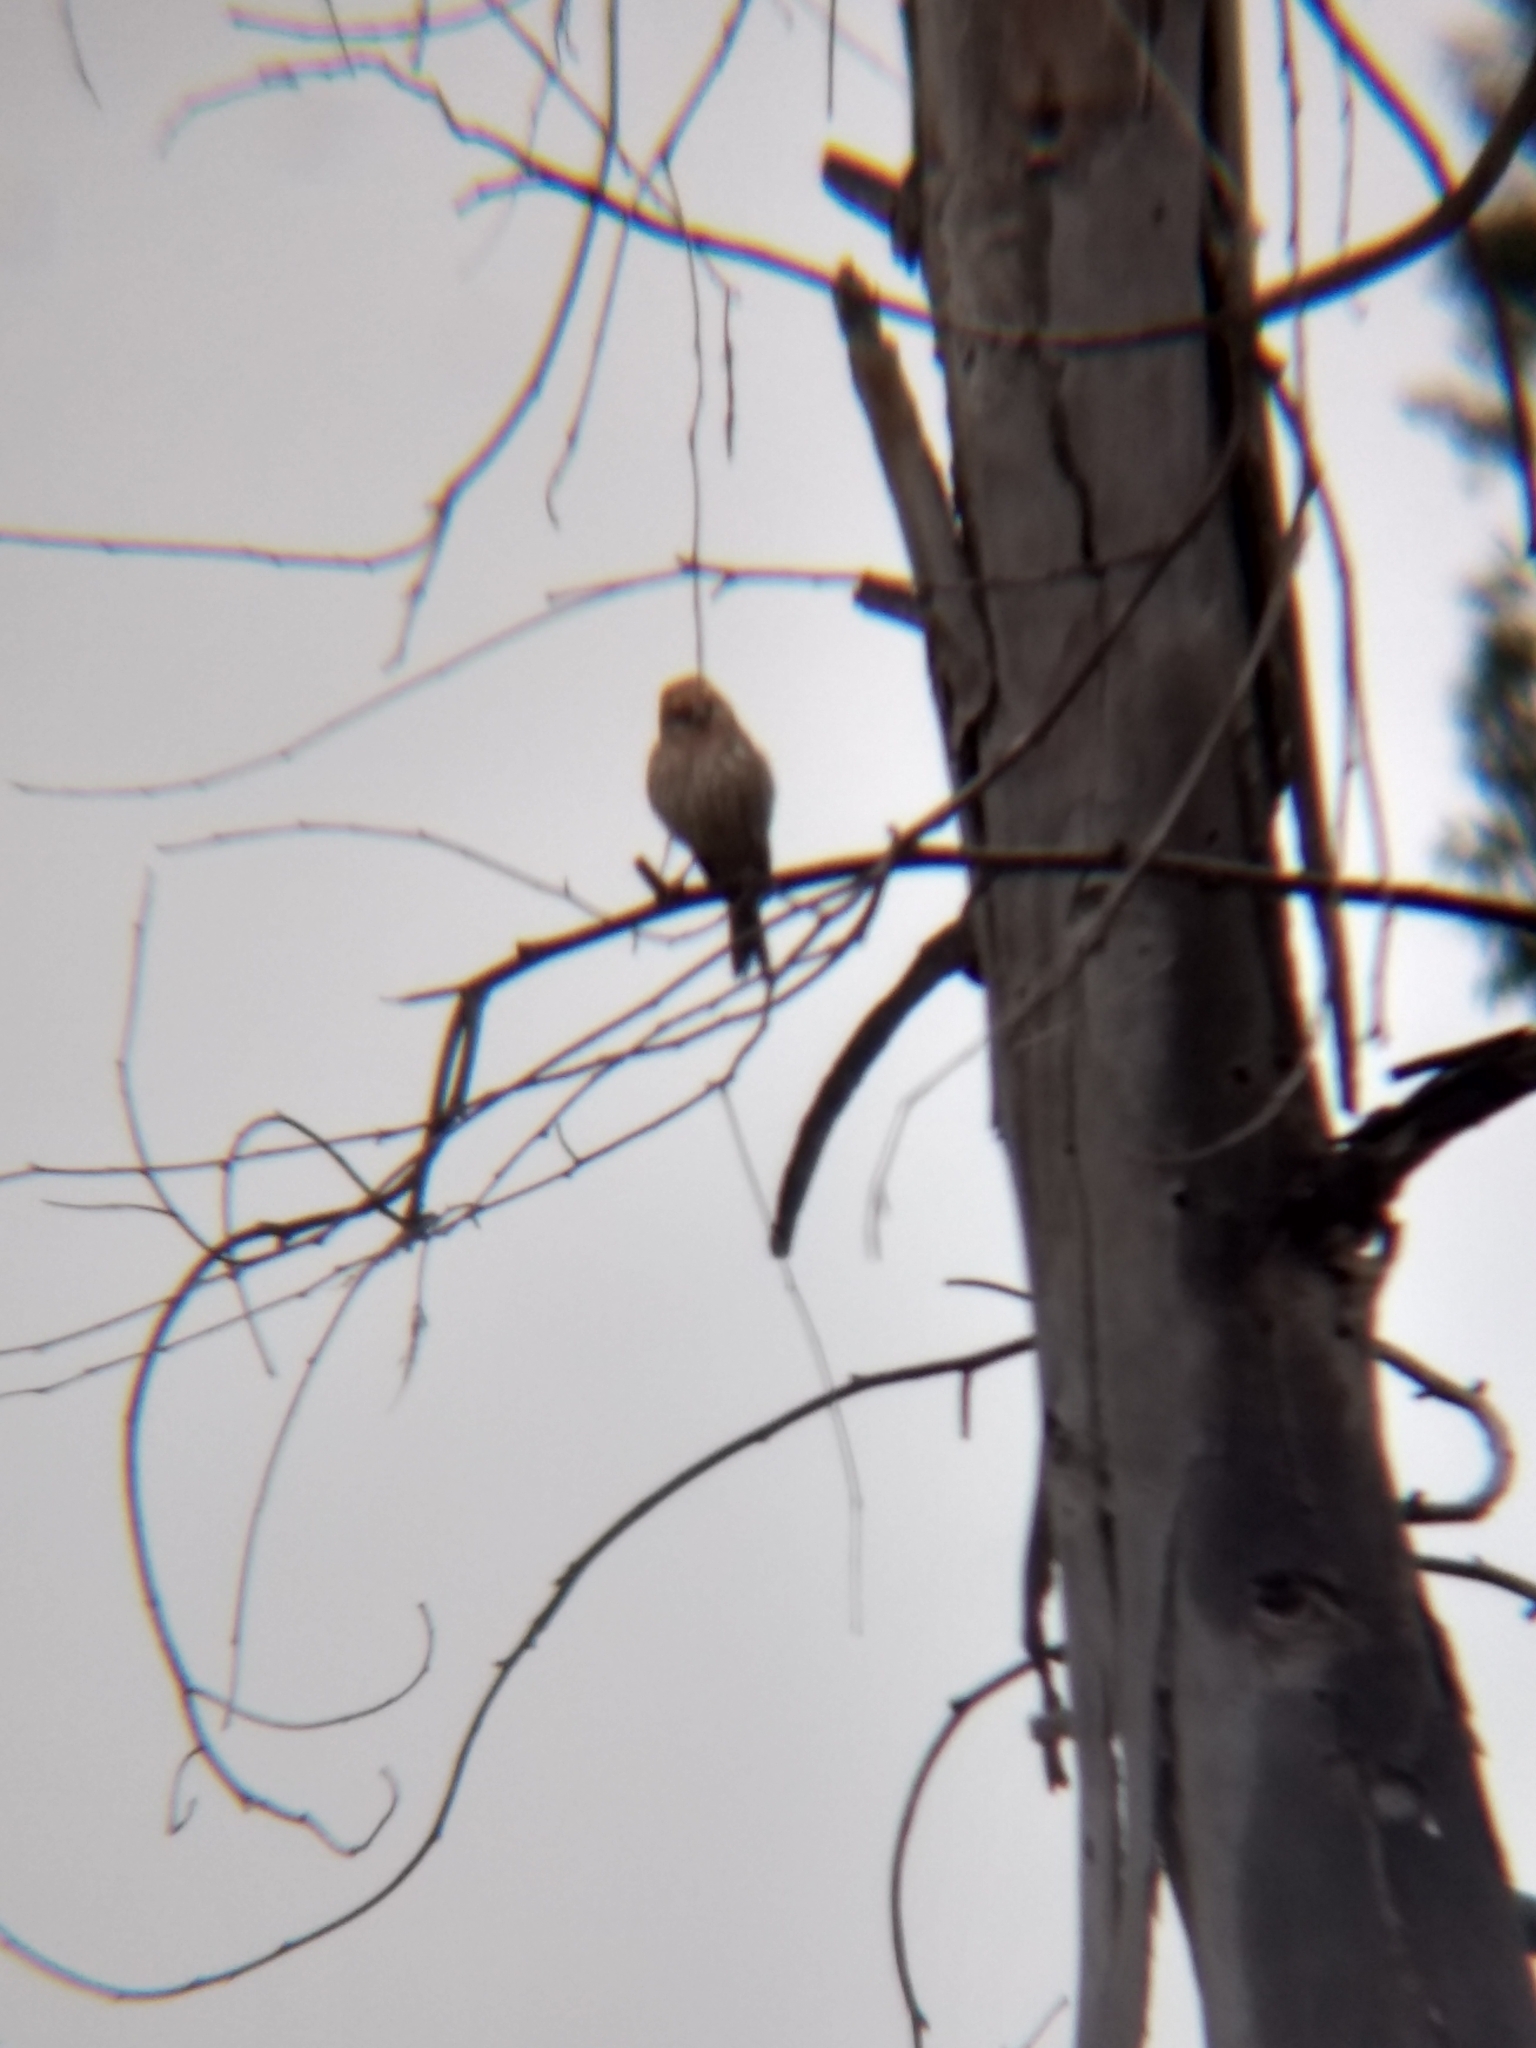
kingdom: Animalia
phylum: Chordata
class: Aves
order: Passeriformes
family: Fringillidae
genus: Haemorhous
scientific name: Haemorhous mexicanus
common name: House finch
